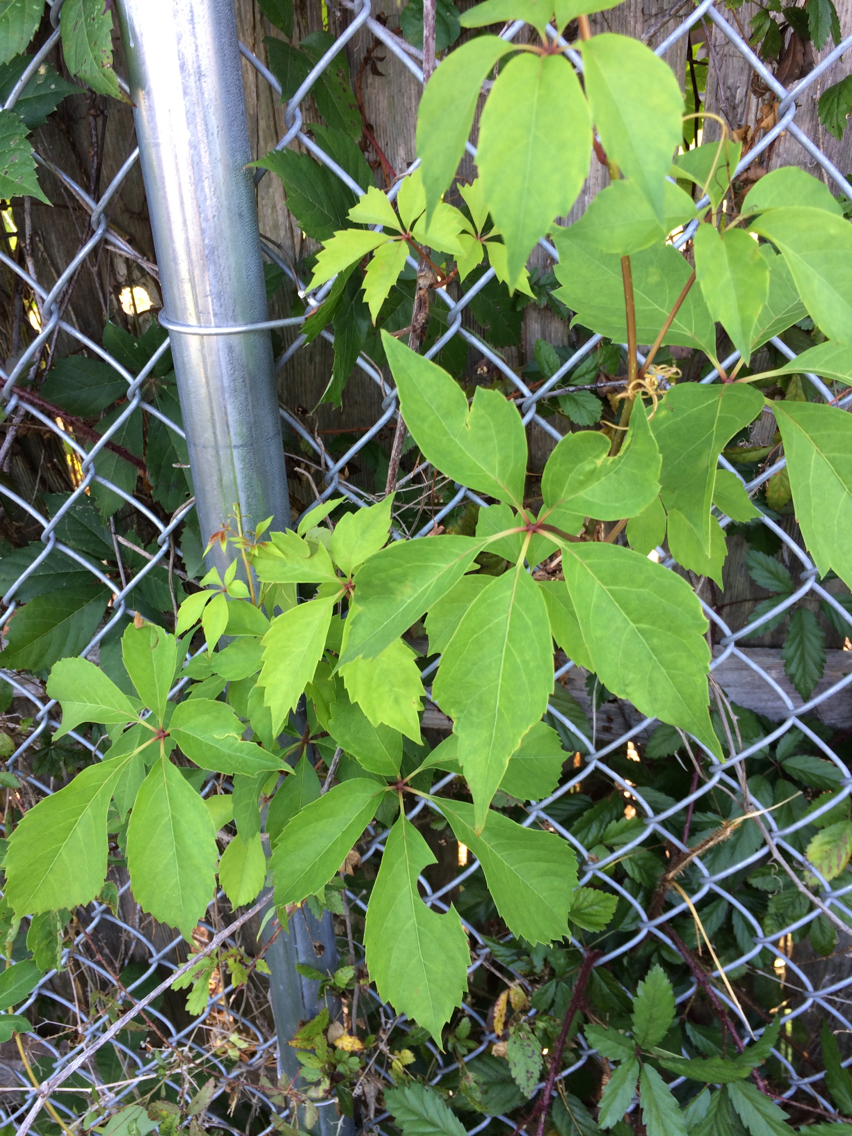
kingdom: Plantae
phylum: Tracheophyta
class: Magnoliopsida
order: Vitales
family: Vitaceae
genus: Parthenocissus
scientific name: Parthenocissus quinquefolia
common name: Virginia-creeper
